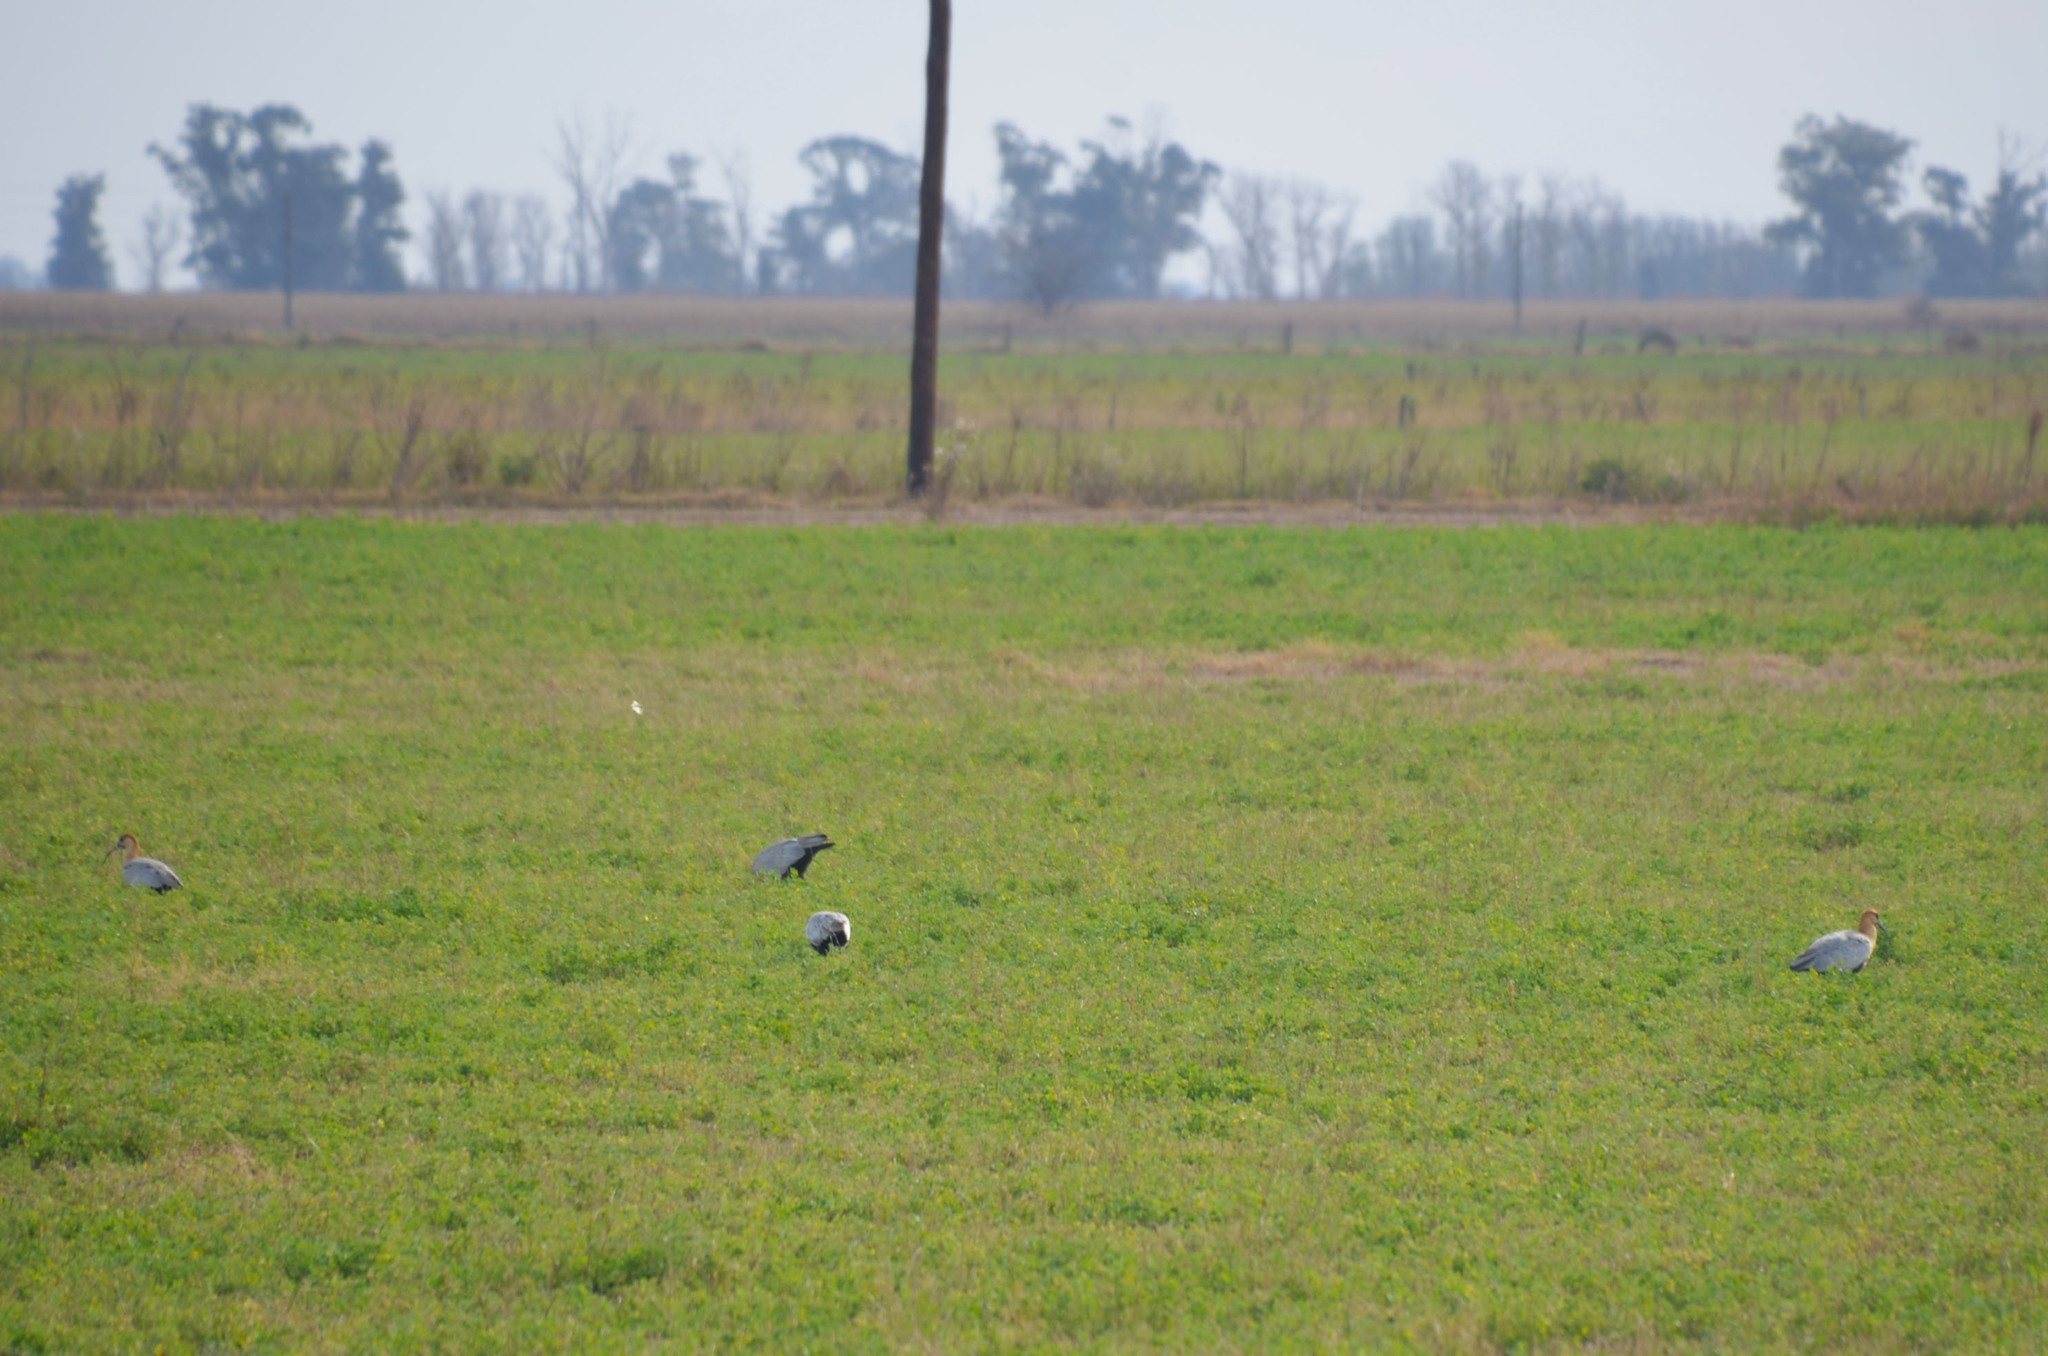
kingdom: Animalia
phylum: Chordata
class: Aves
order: Pelecaniformes
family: Threskiornithidae
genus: Theristicus
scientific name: Theristicus melanopis
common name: Black-faced ibis
